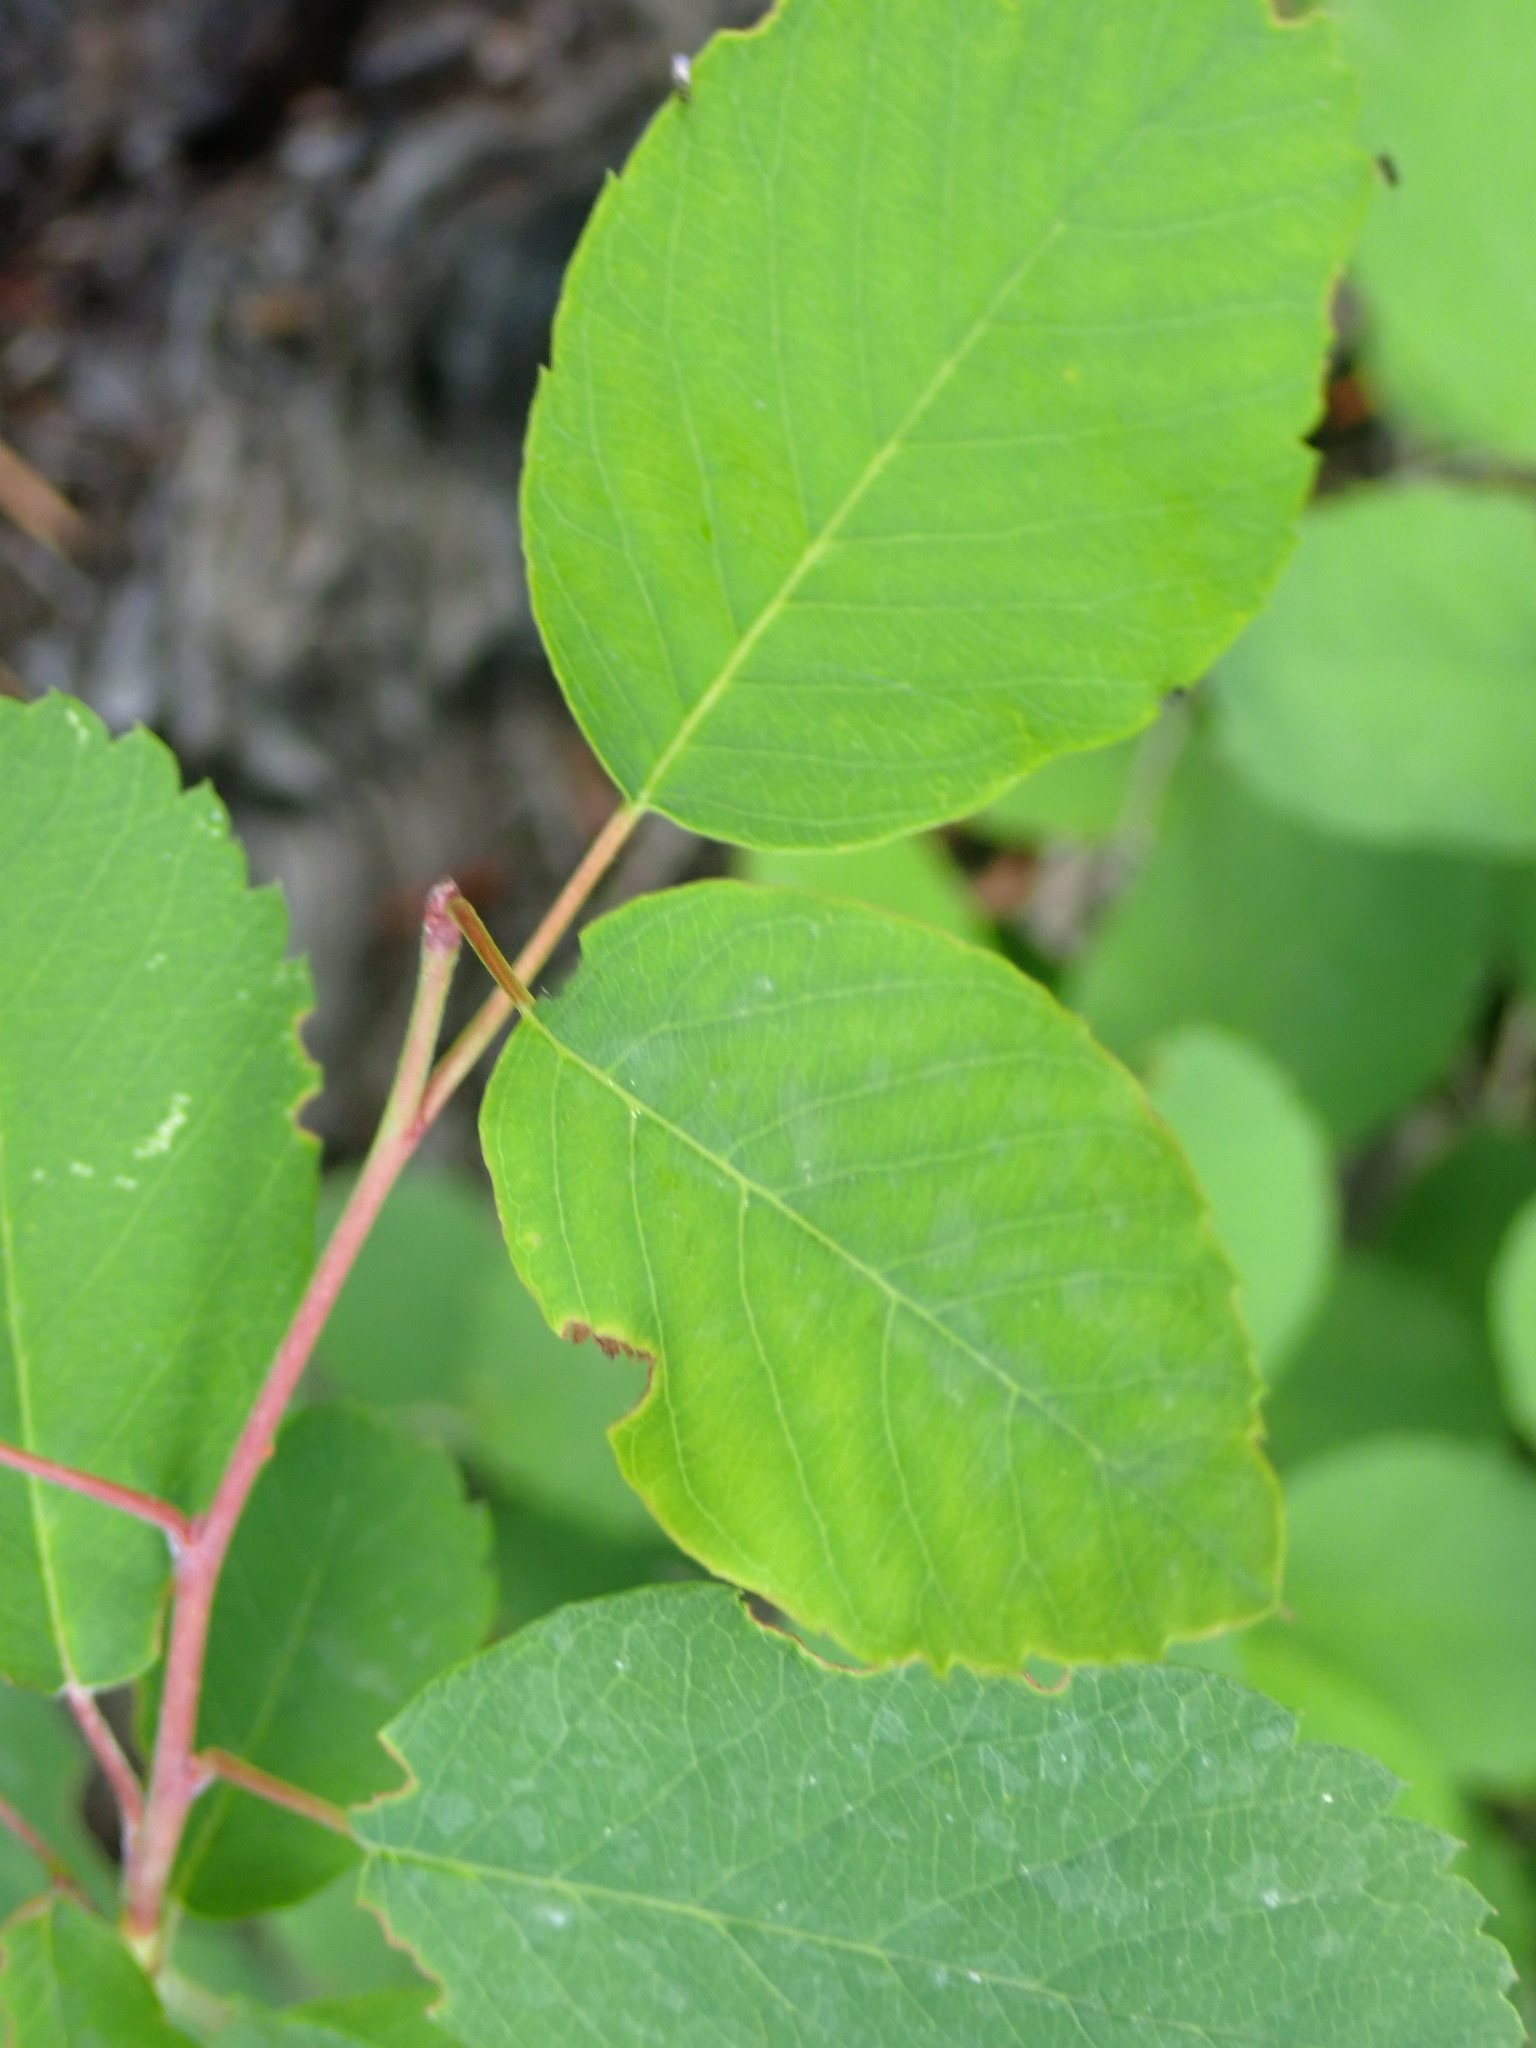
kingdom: Plantae
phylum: Tracheophyta
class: Magnoliopsida
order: Rosales
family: Rosaceae
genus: Amelanchier
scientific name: Amelanchier alnifolia
